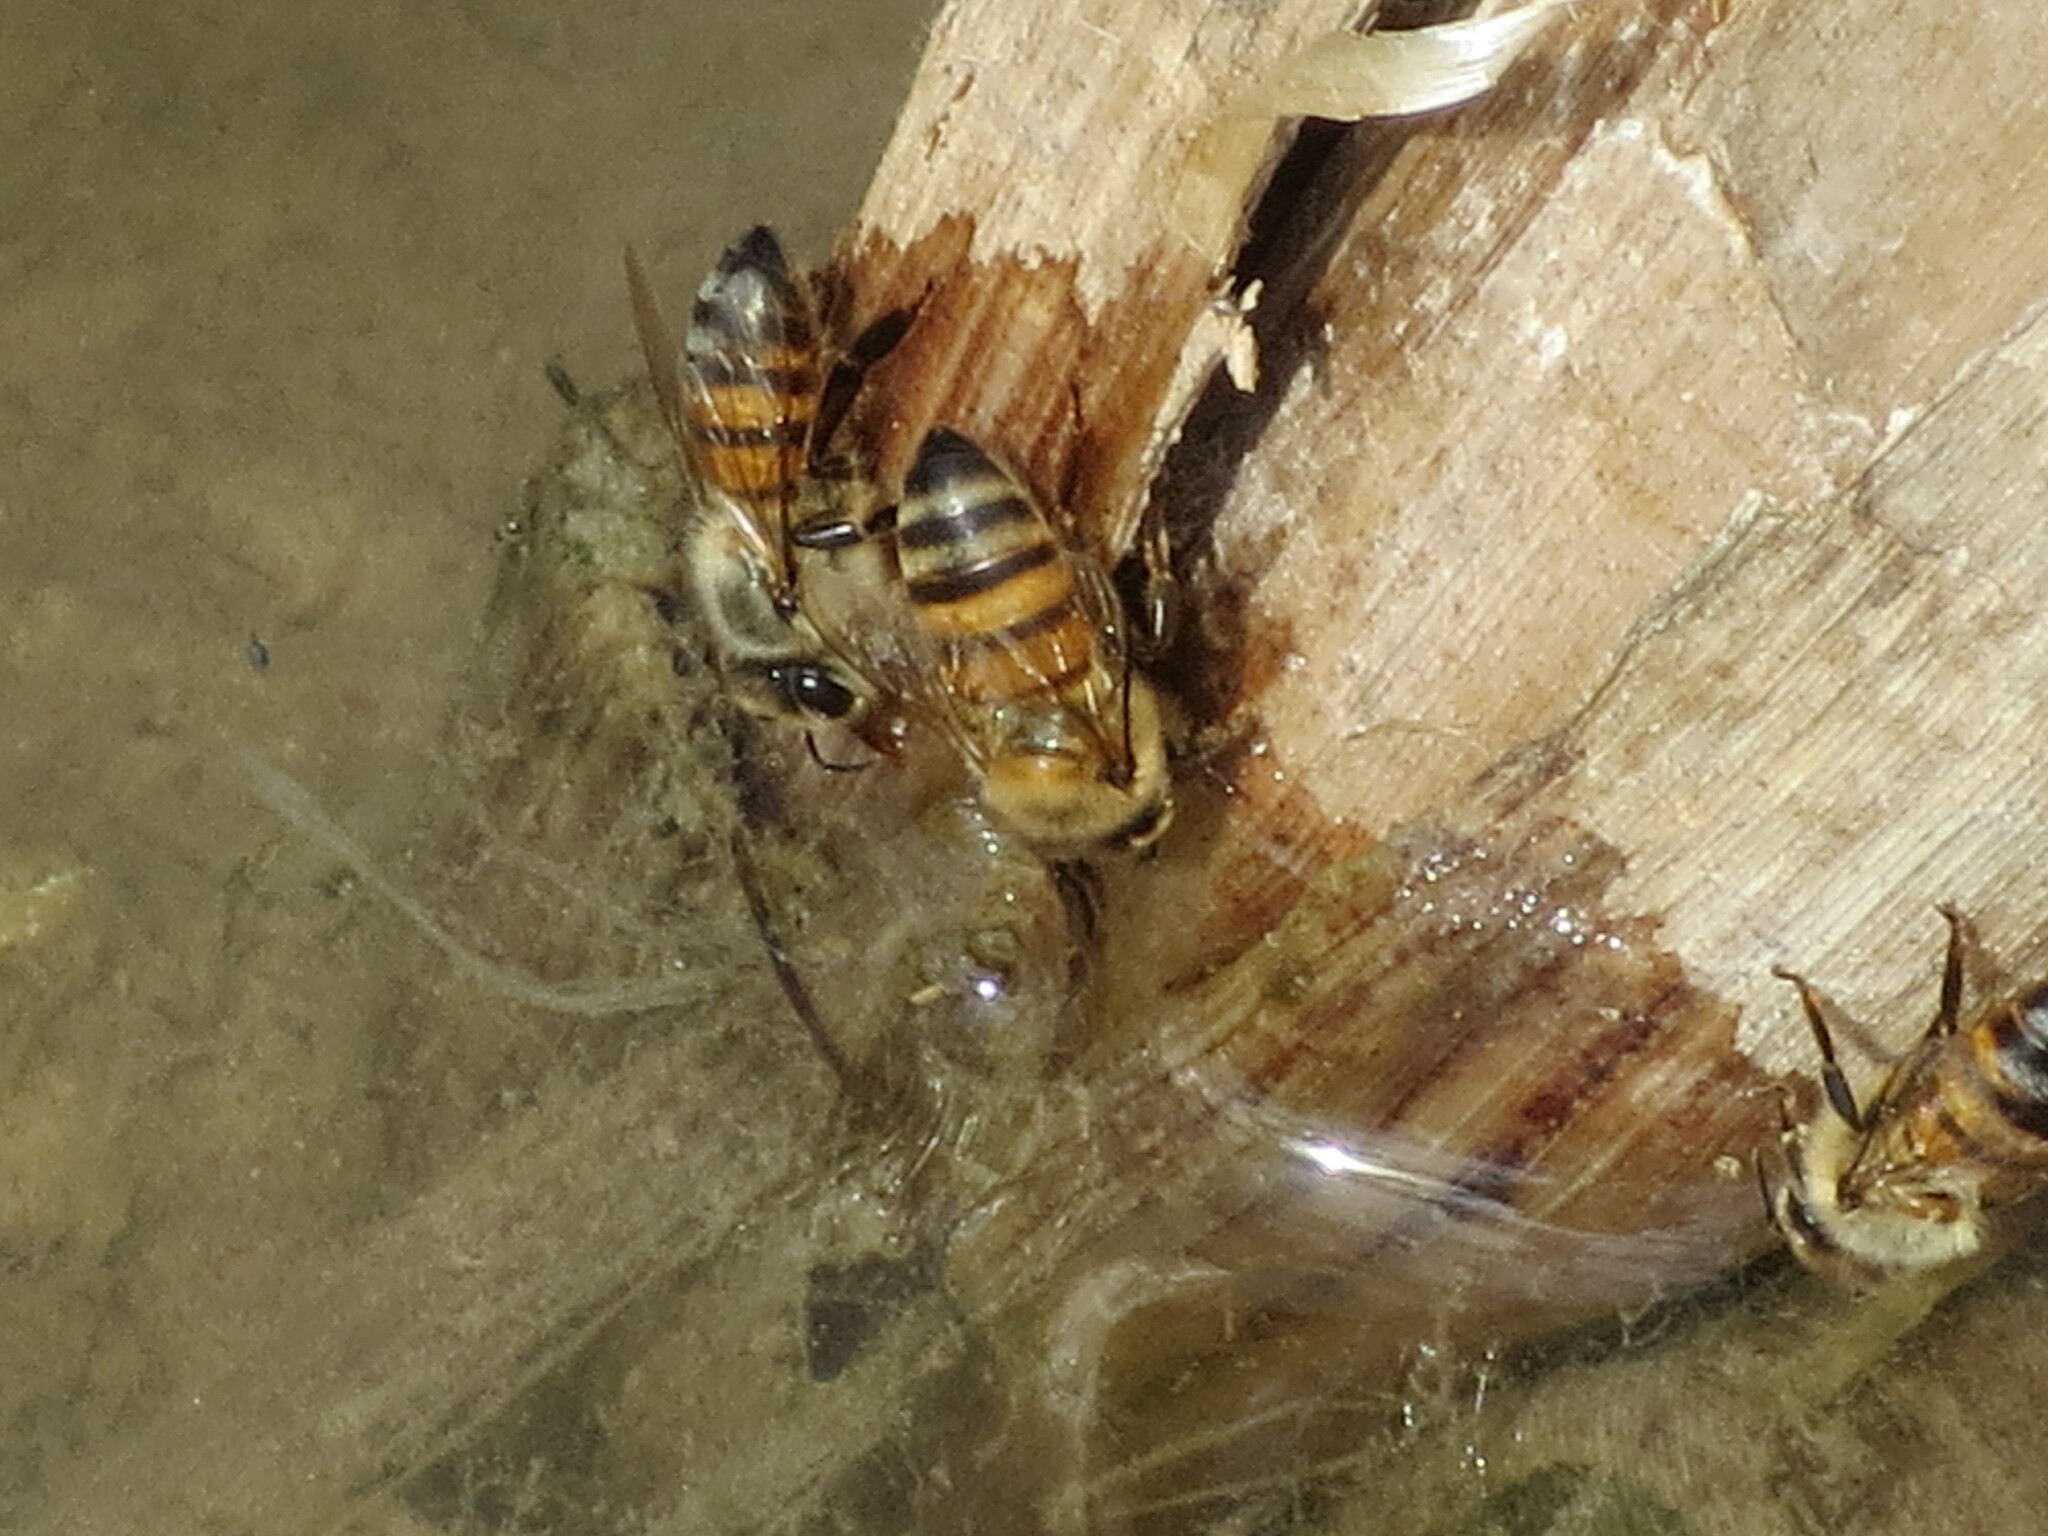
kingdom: Animalia
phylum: Arthropoda
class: Insecta
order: Hymenoptera
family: Apidae
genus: Apis
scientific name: Apis mellifera
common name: Honey bee
